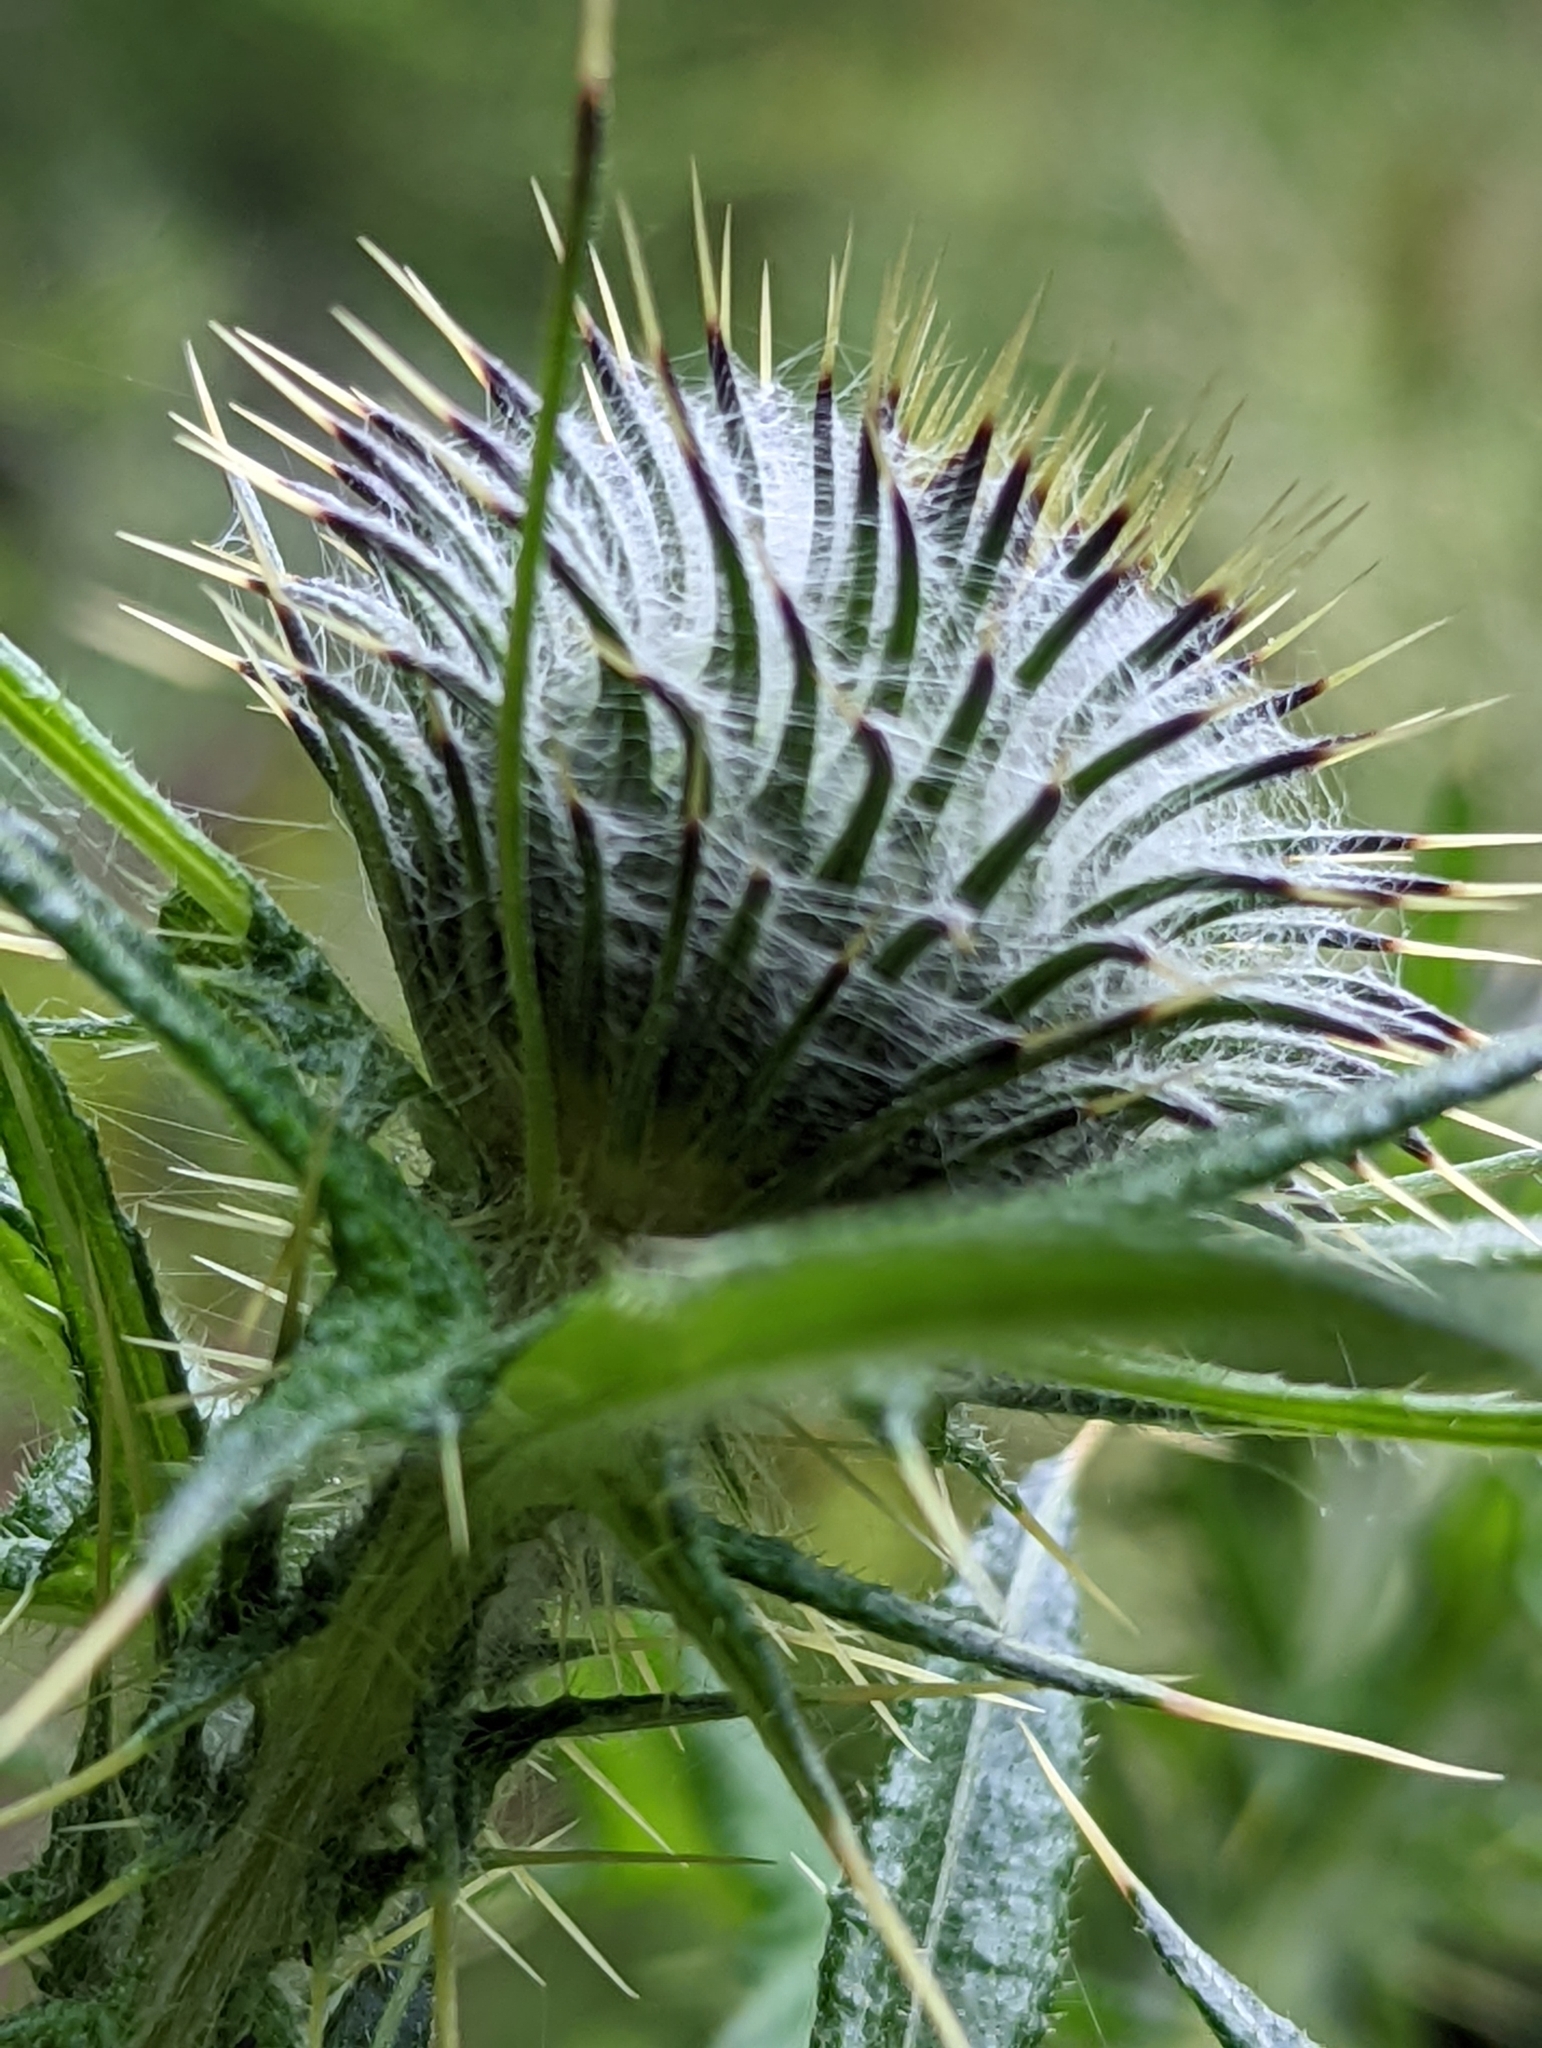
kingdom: Plantae
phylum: Tracheophyta
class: Magnoliopsida
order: Asterales
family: Asteraceae
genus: Cirsium
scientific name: Cirsium vulgare
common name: Bull thistle
